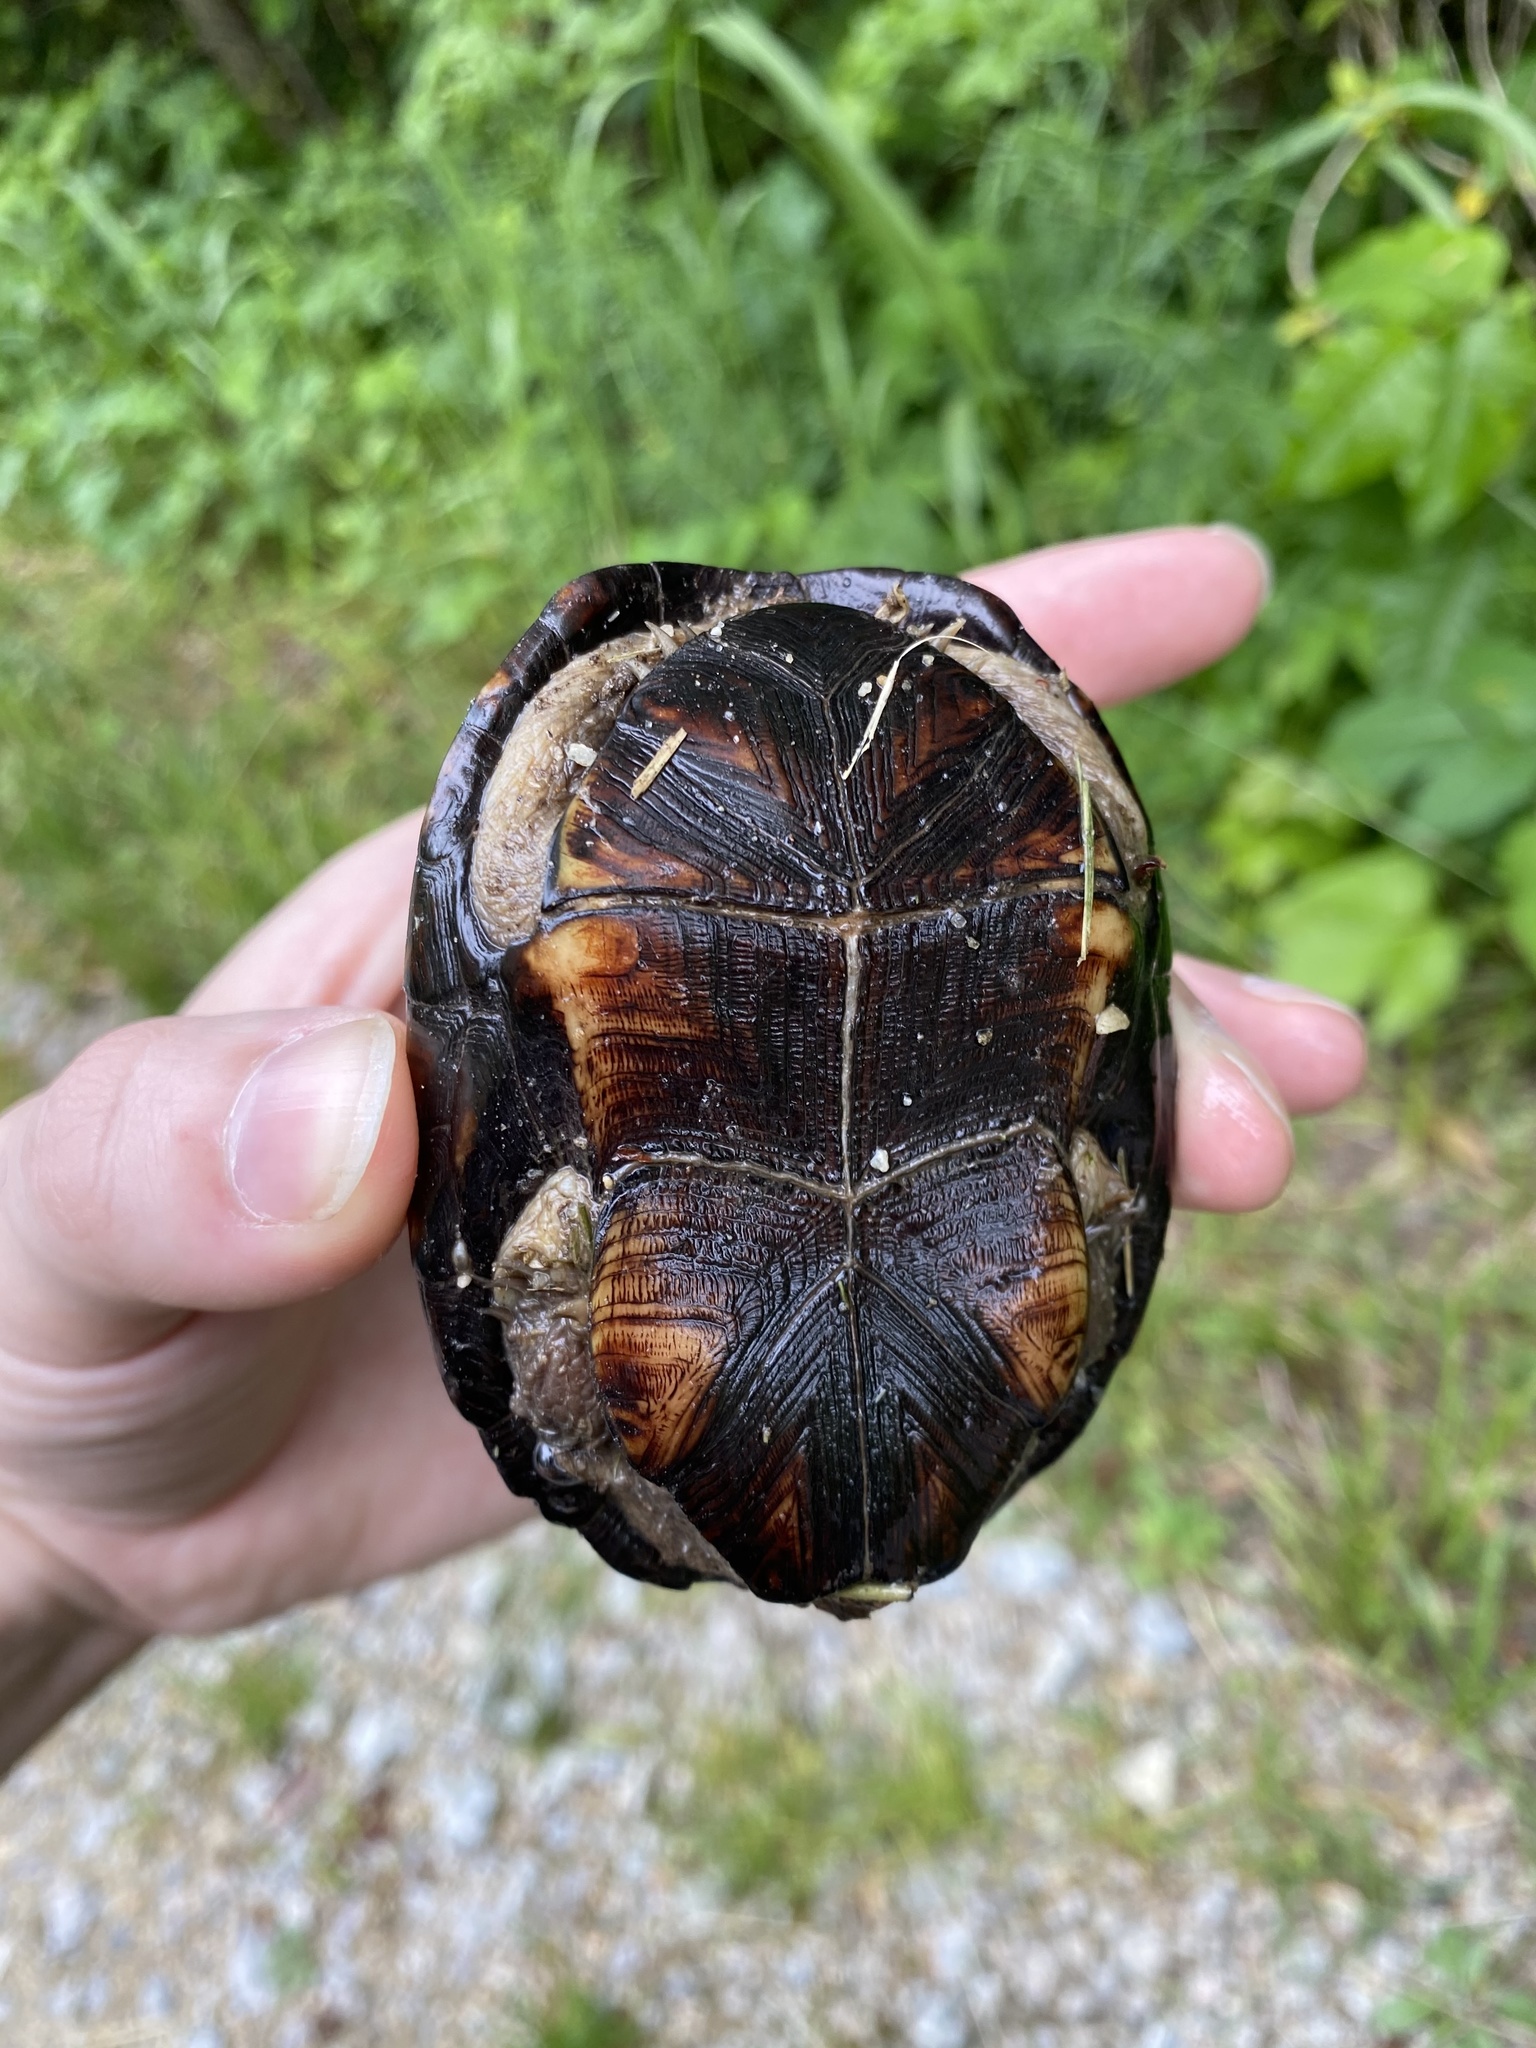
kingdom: Animalia
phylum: Chordata
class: Testudines
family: Kinosternidae
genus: Kinosternon
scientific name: Kinosternon subrubrum
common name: Eastern mud turtle
